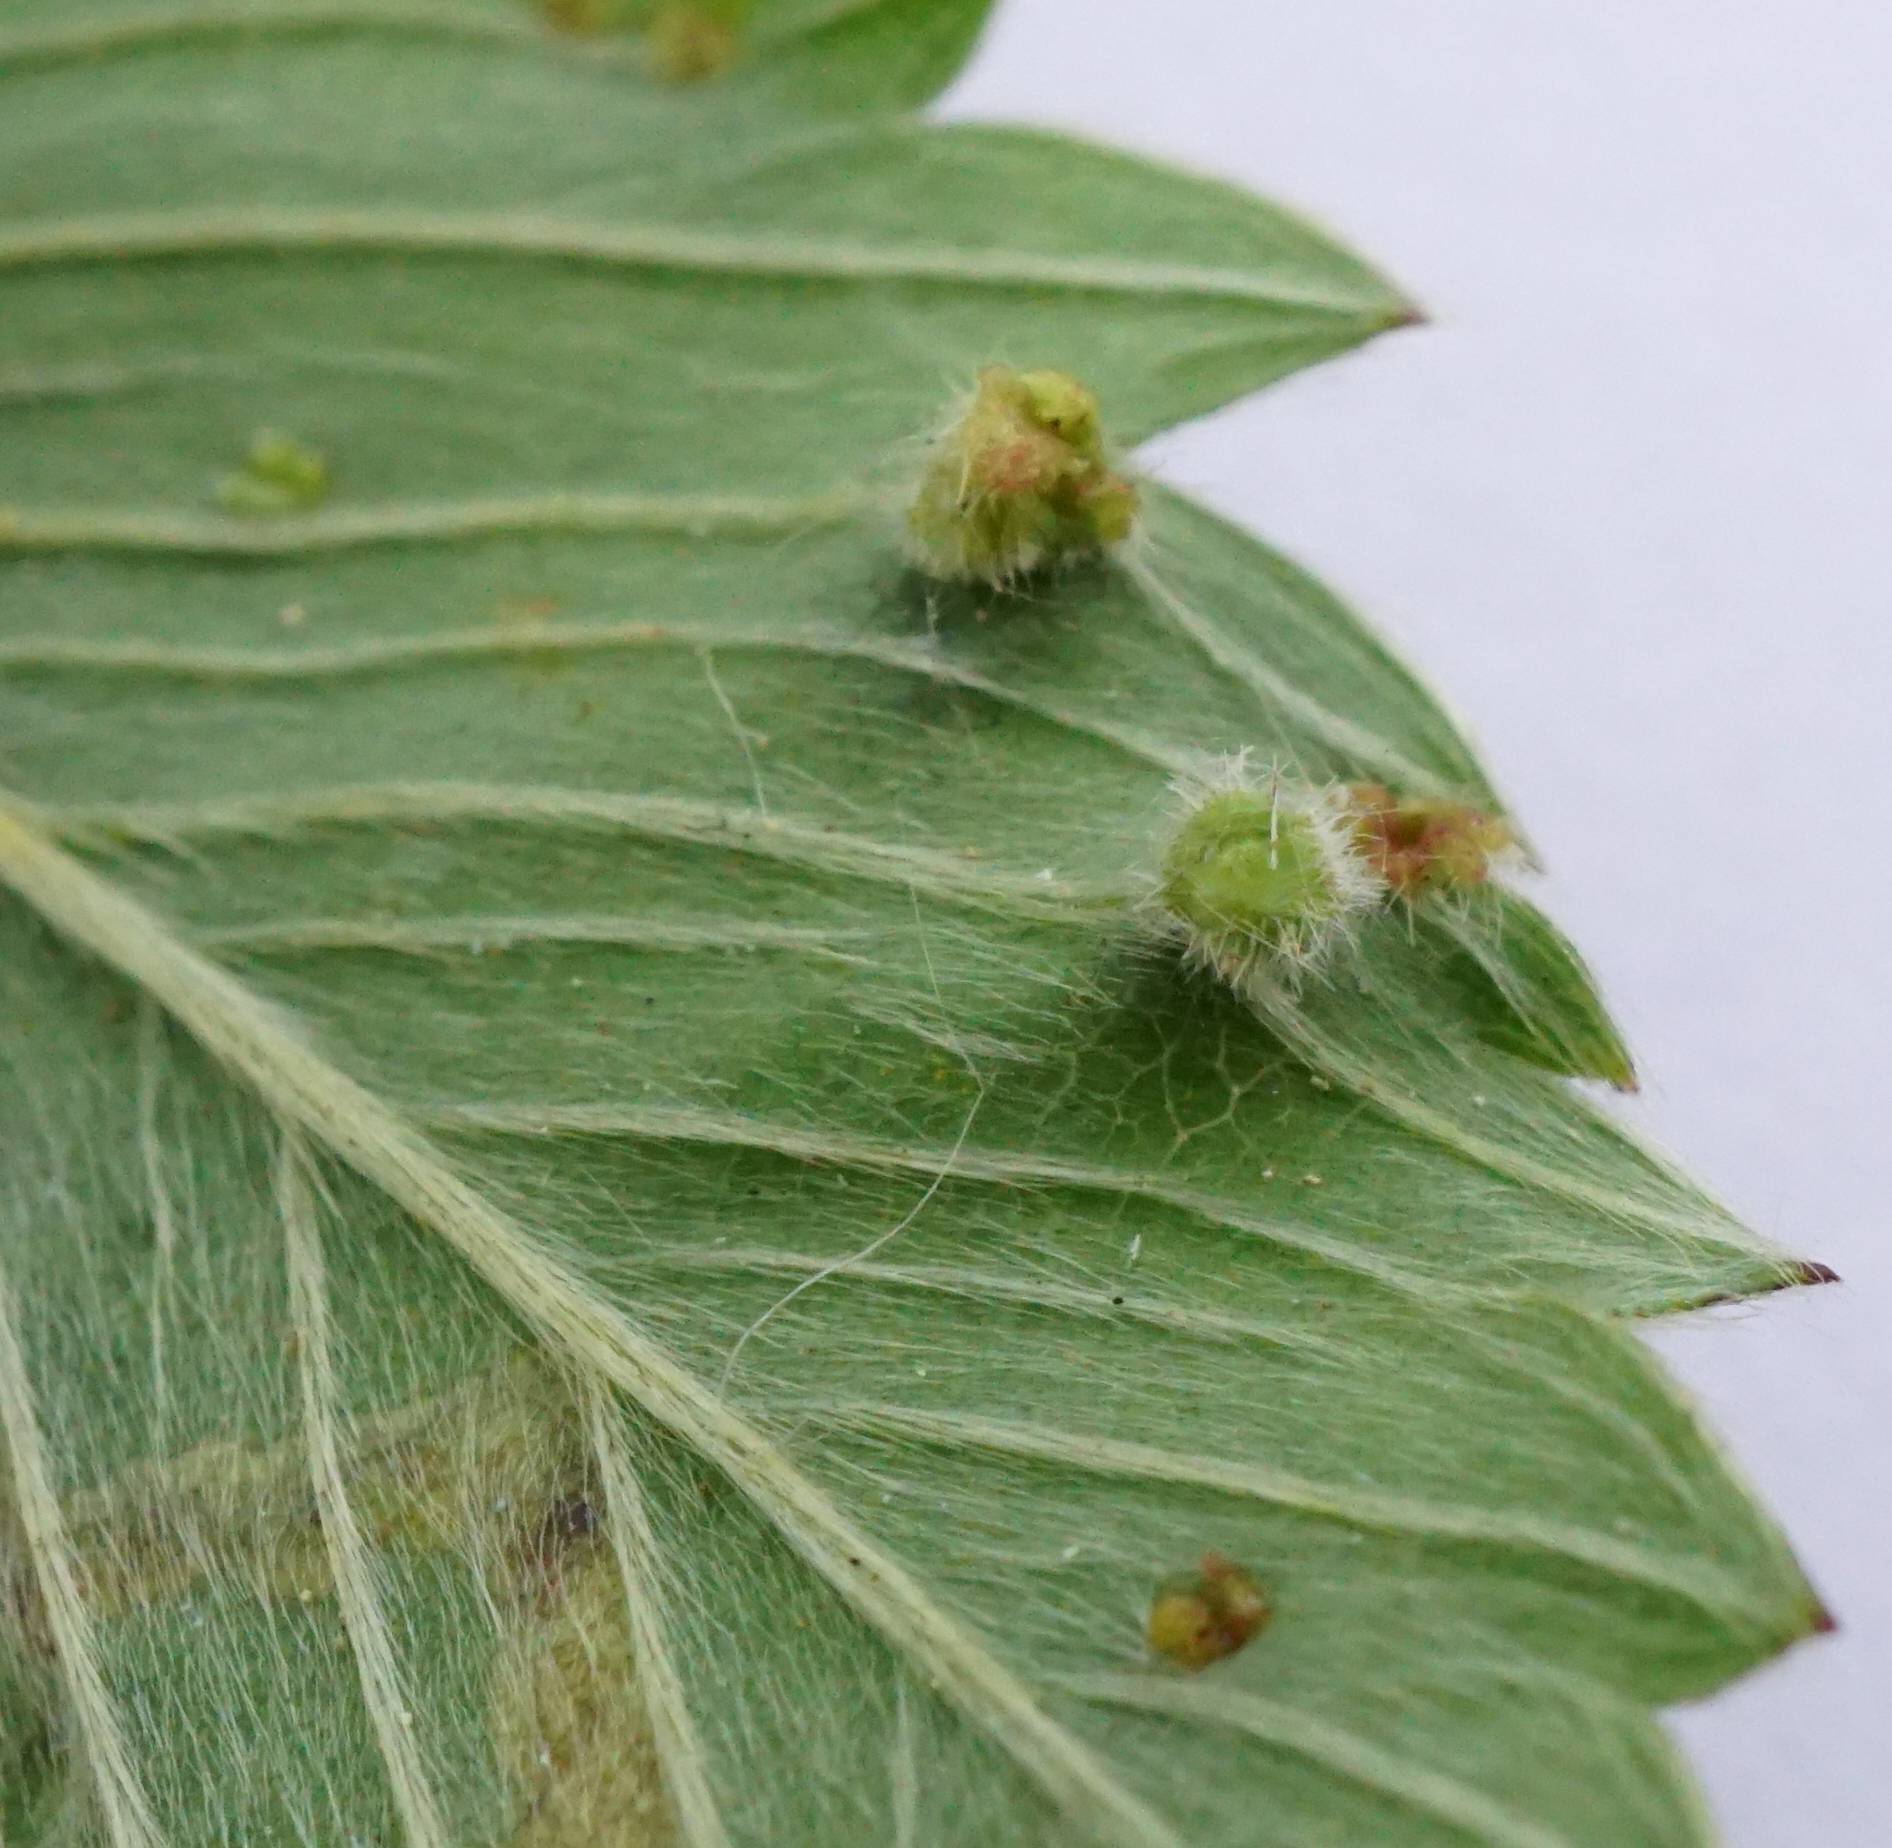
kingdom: Animalia
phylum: Arthropoda
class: Arachnida
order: Trombidiformes
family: Phytoptidae
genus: Fragariocoptes
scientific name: Fragariocoptes setiger
